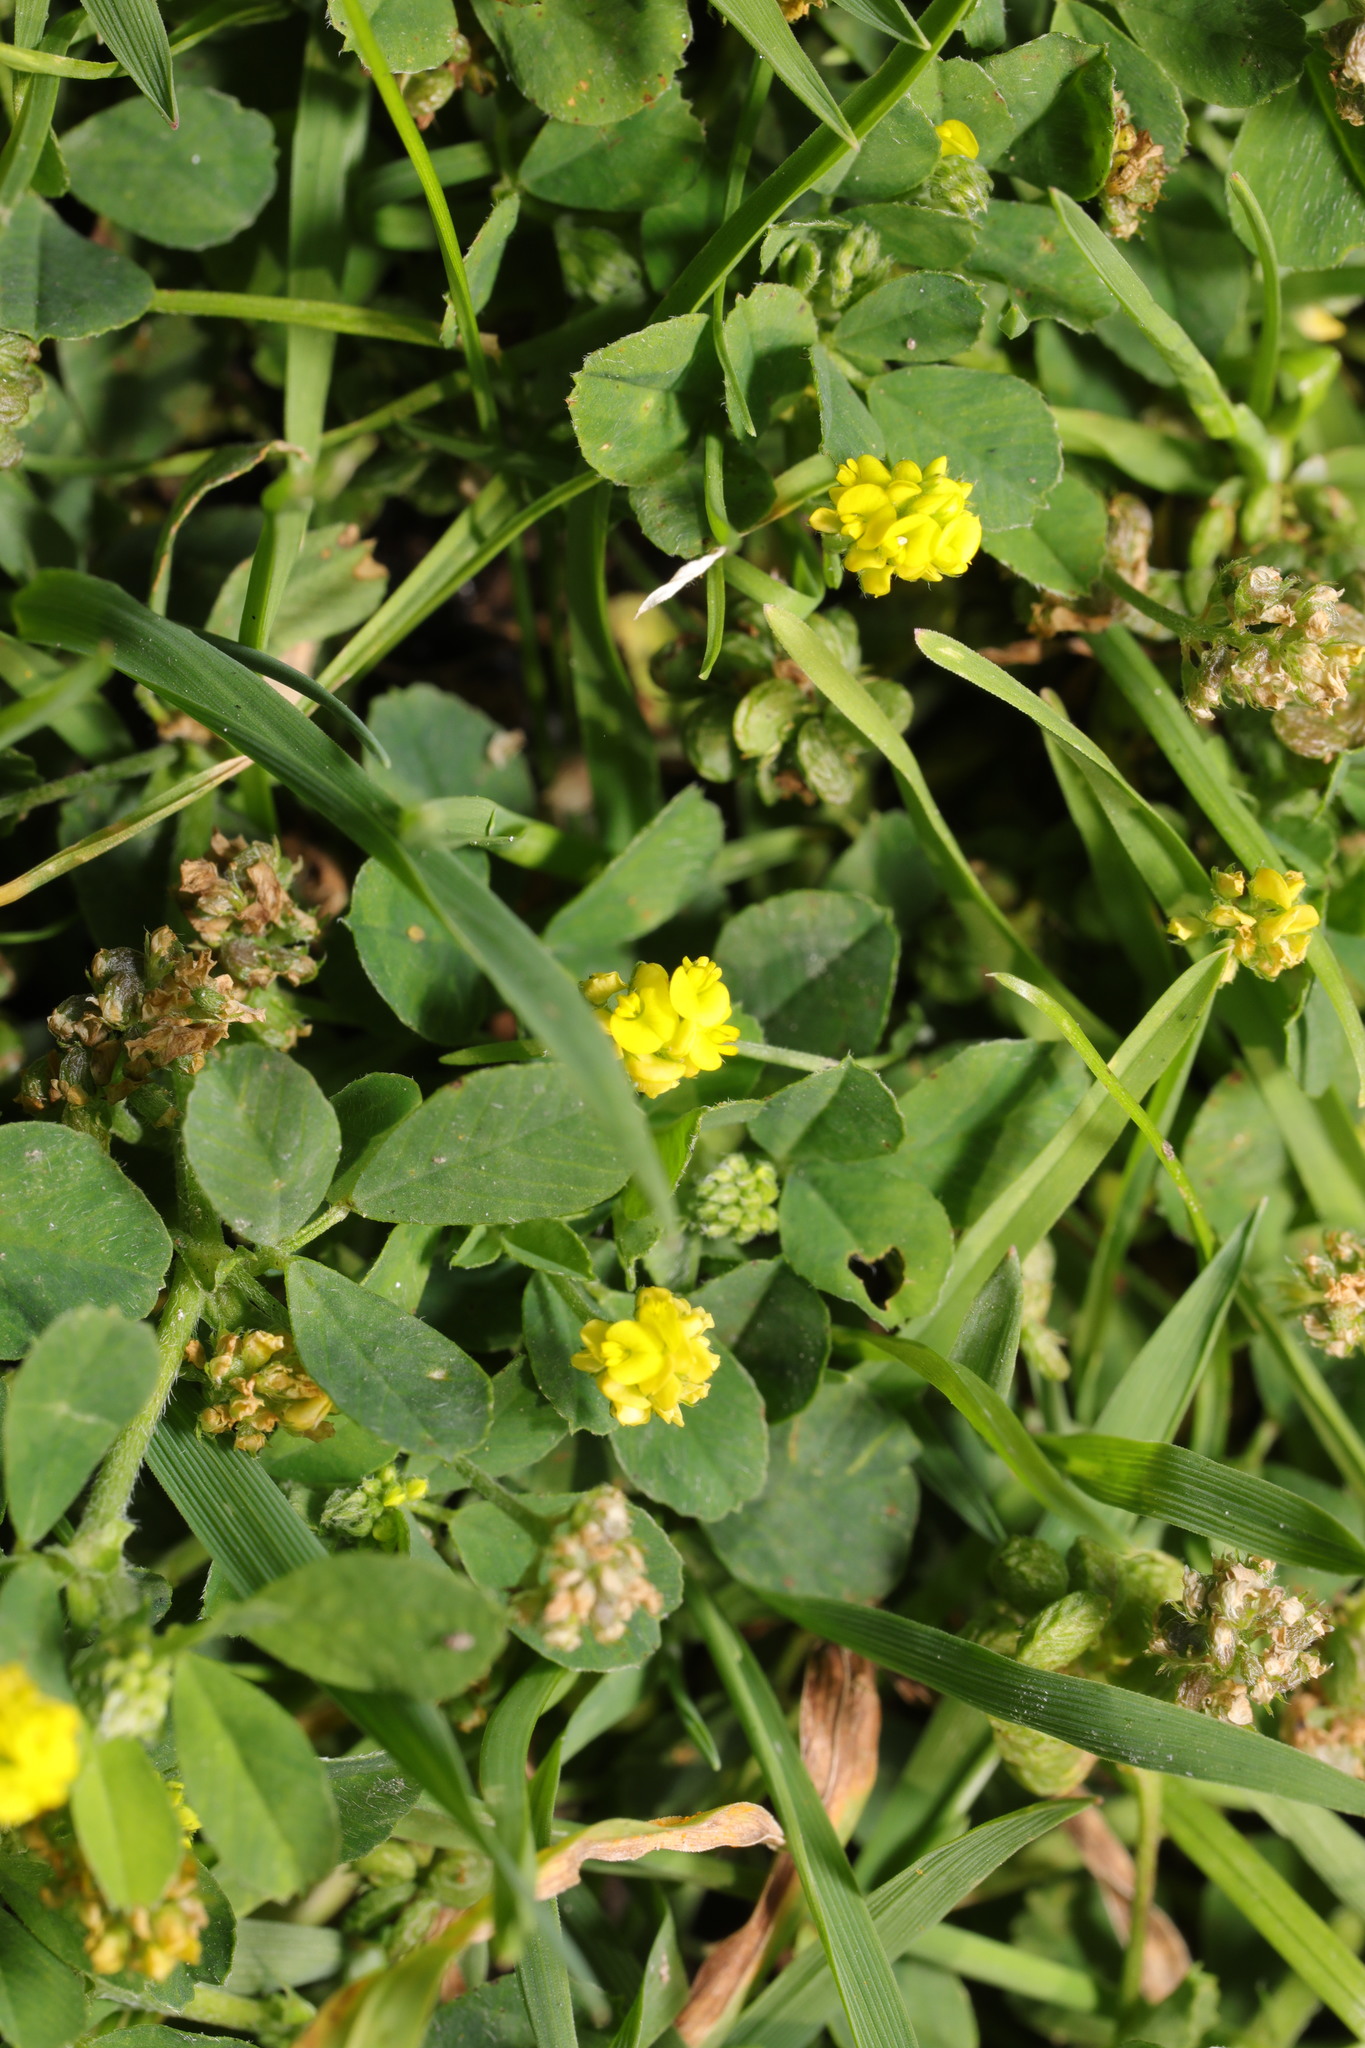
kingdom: Plantae
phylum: Tracheophyta
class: Magnoliopsida
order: Fabales
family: Fabaceae
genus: Medicago
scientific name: Medicago lupulina
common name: Black medick
